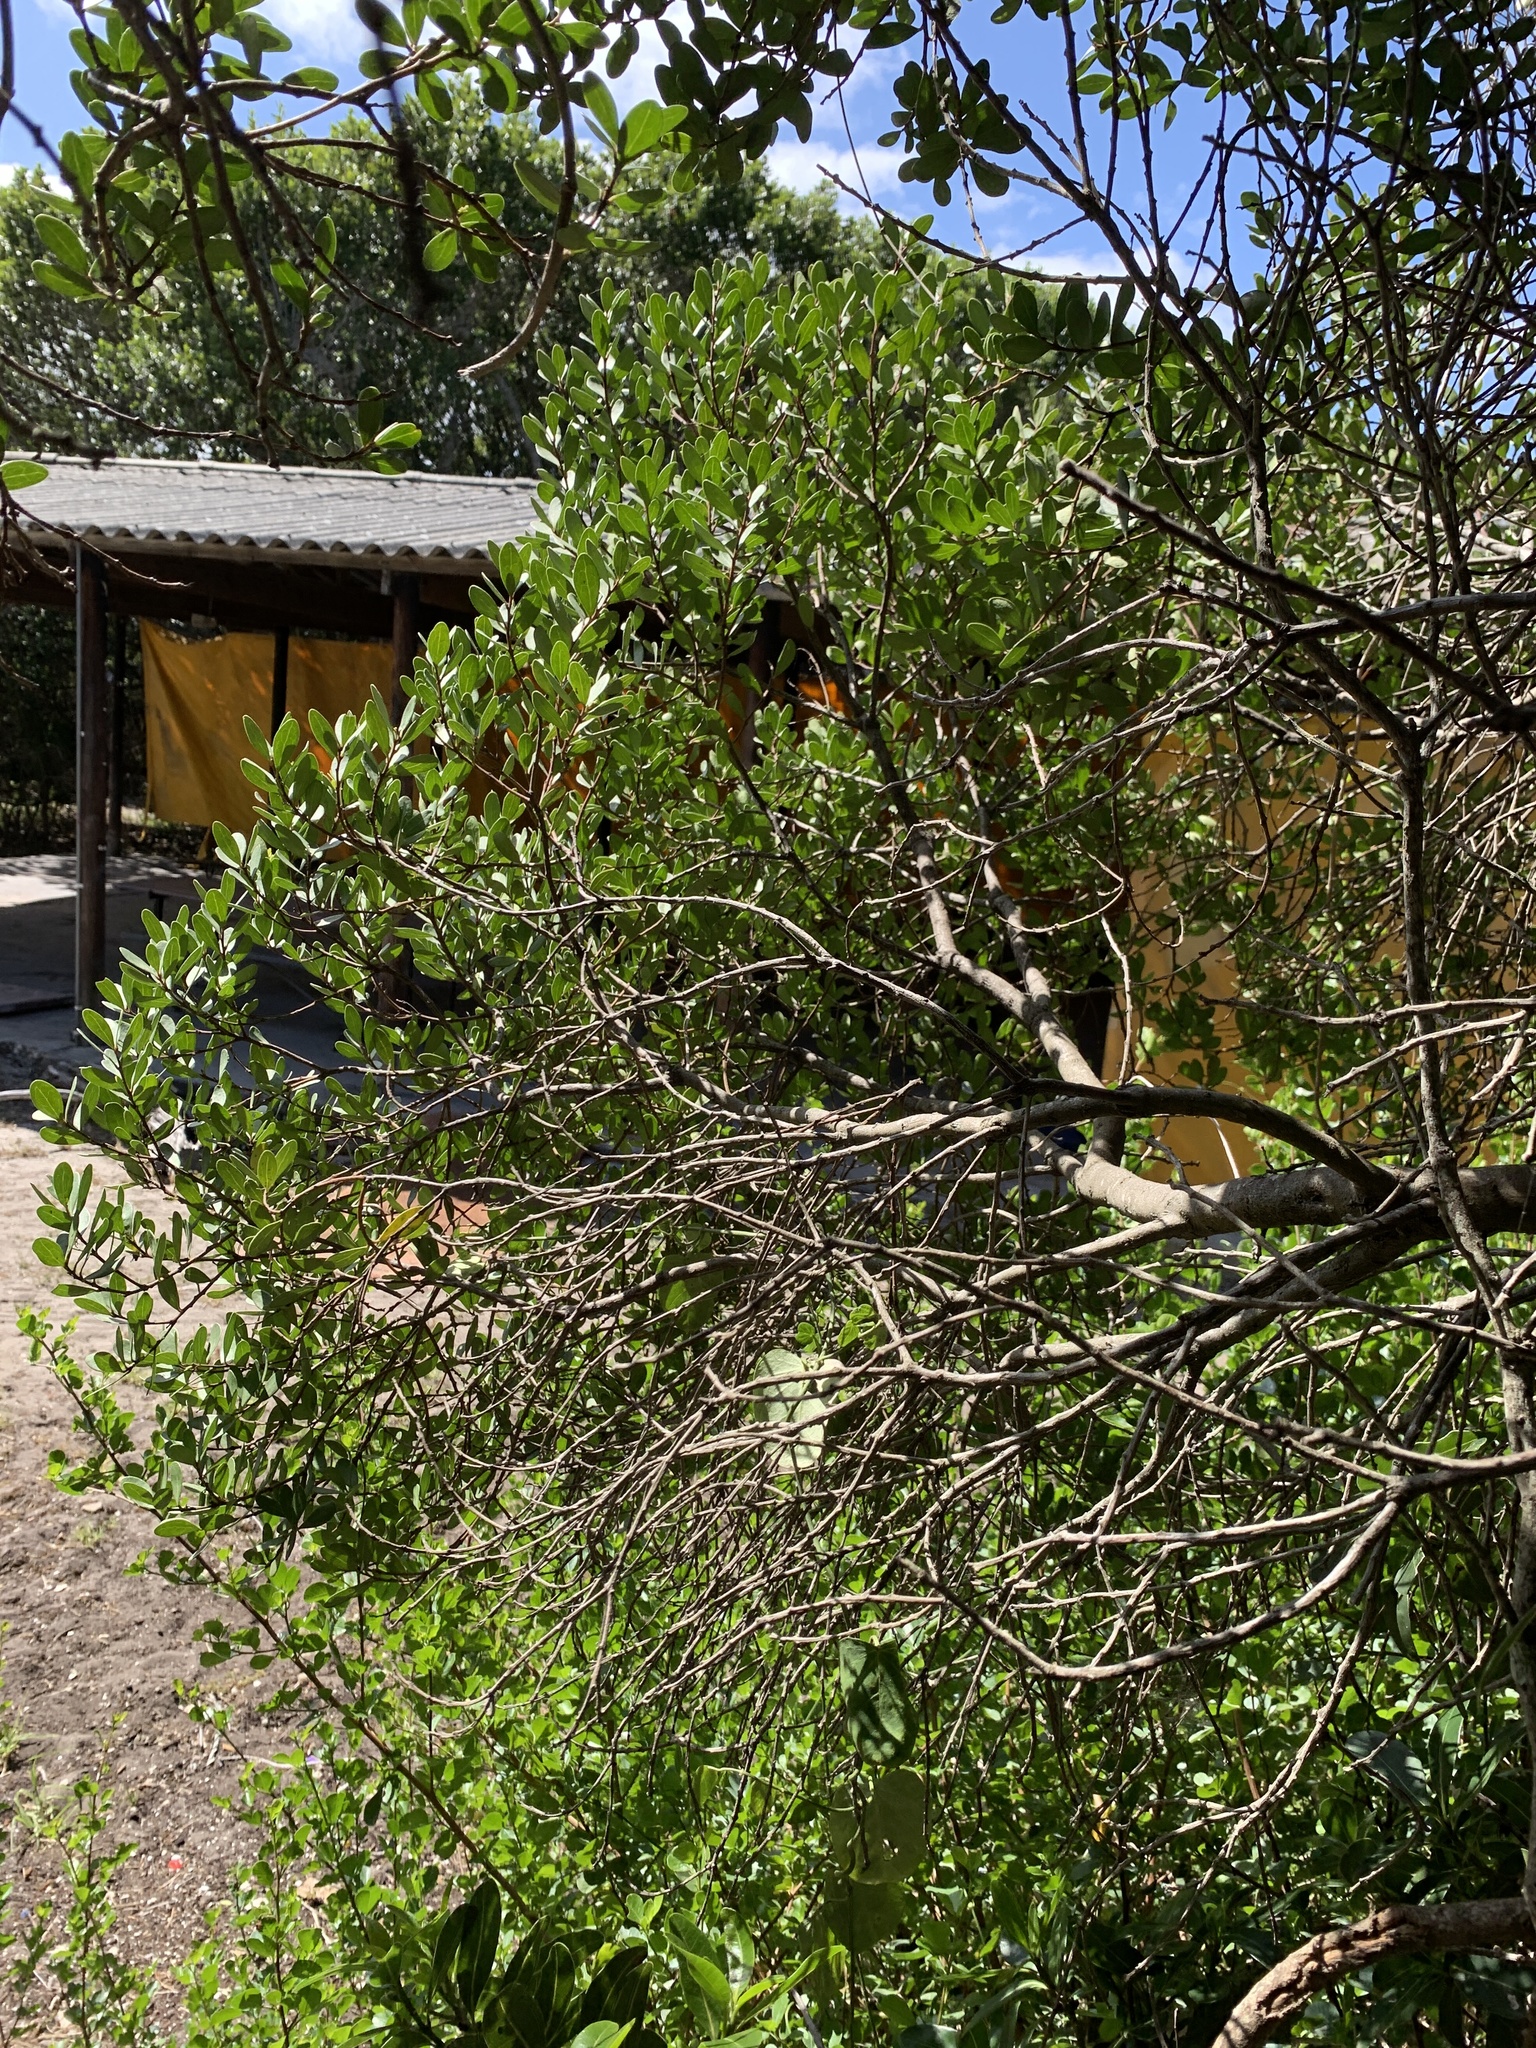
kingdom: Plantae
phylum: Tracheophyta
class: Magnoliopsida
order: Ericales
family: Ebenaceae
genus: Euclea
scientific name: Euclea racemosa
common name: Dune guarri
